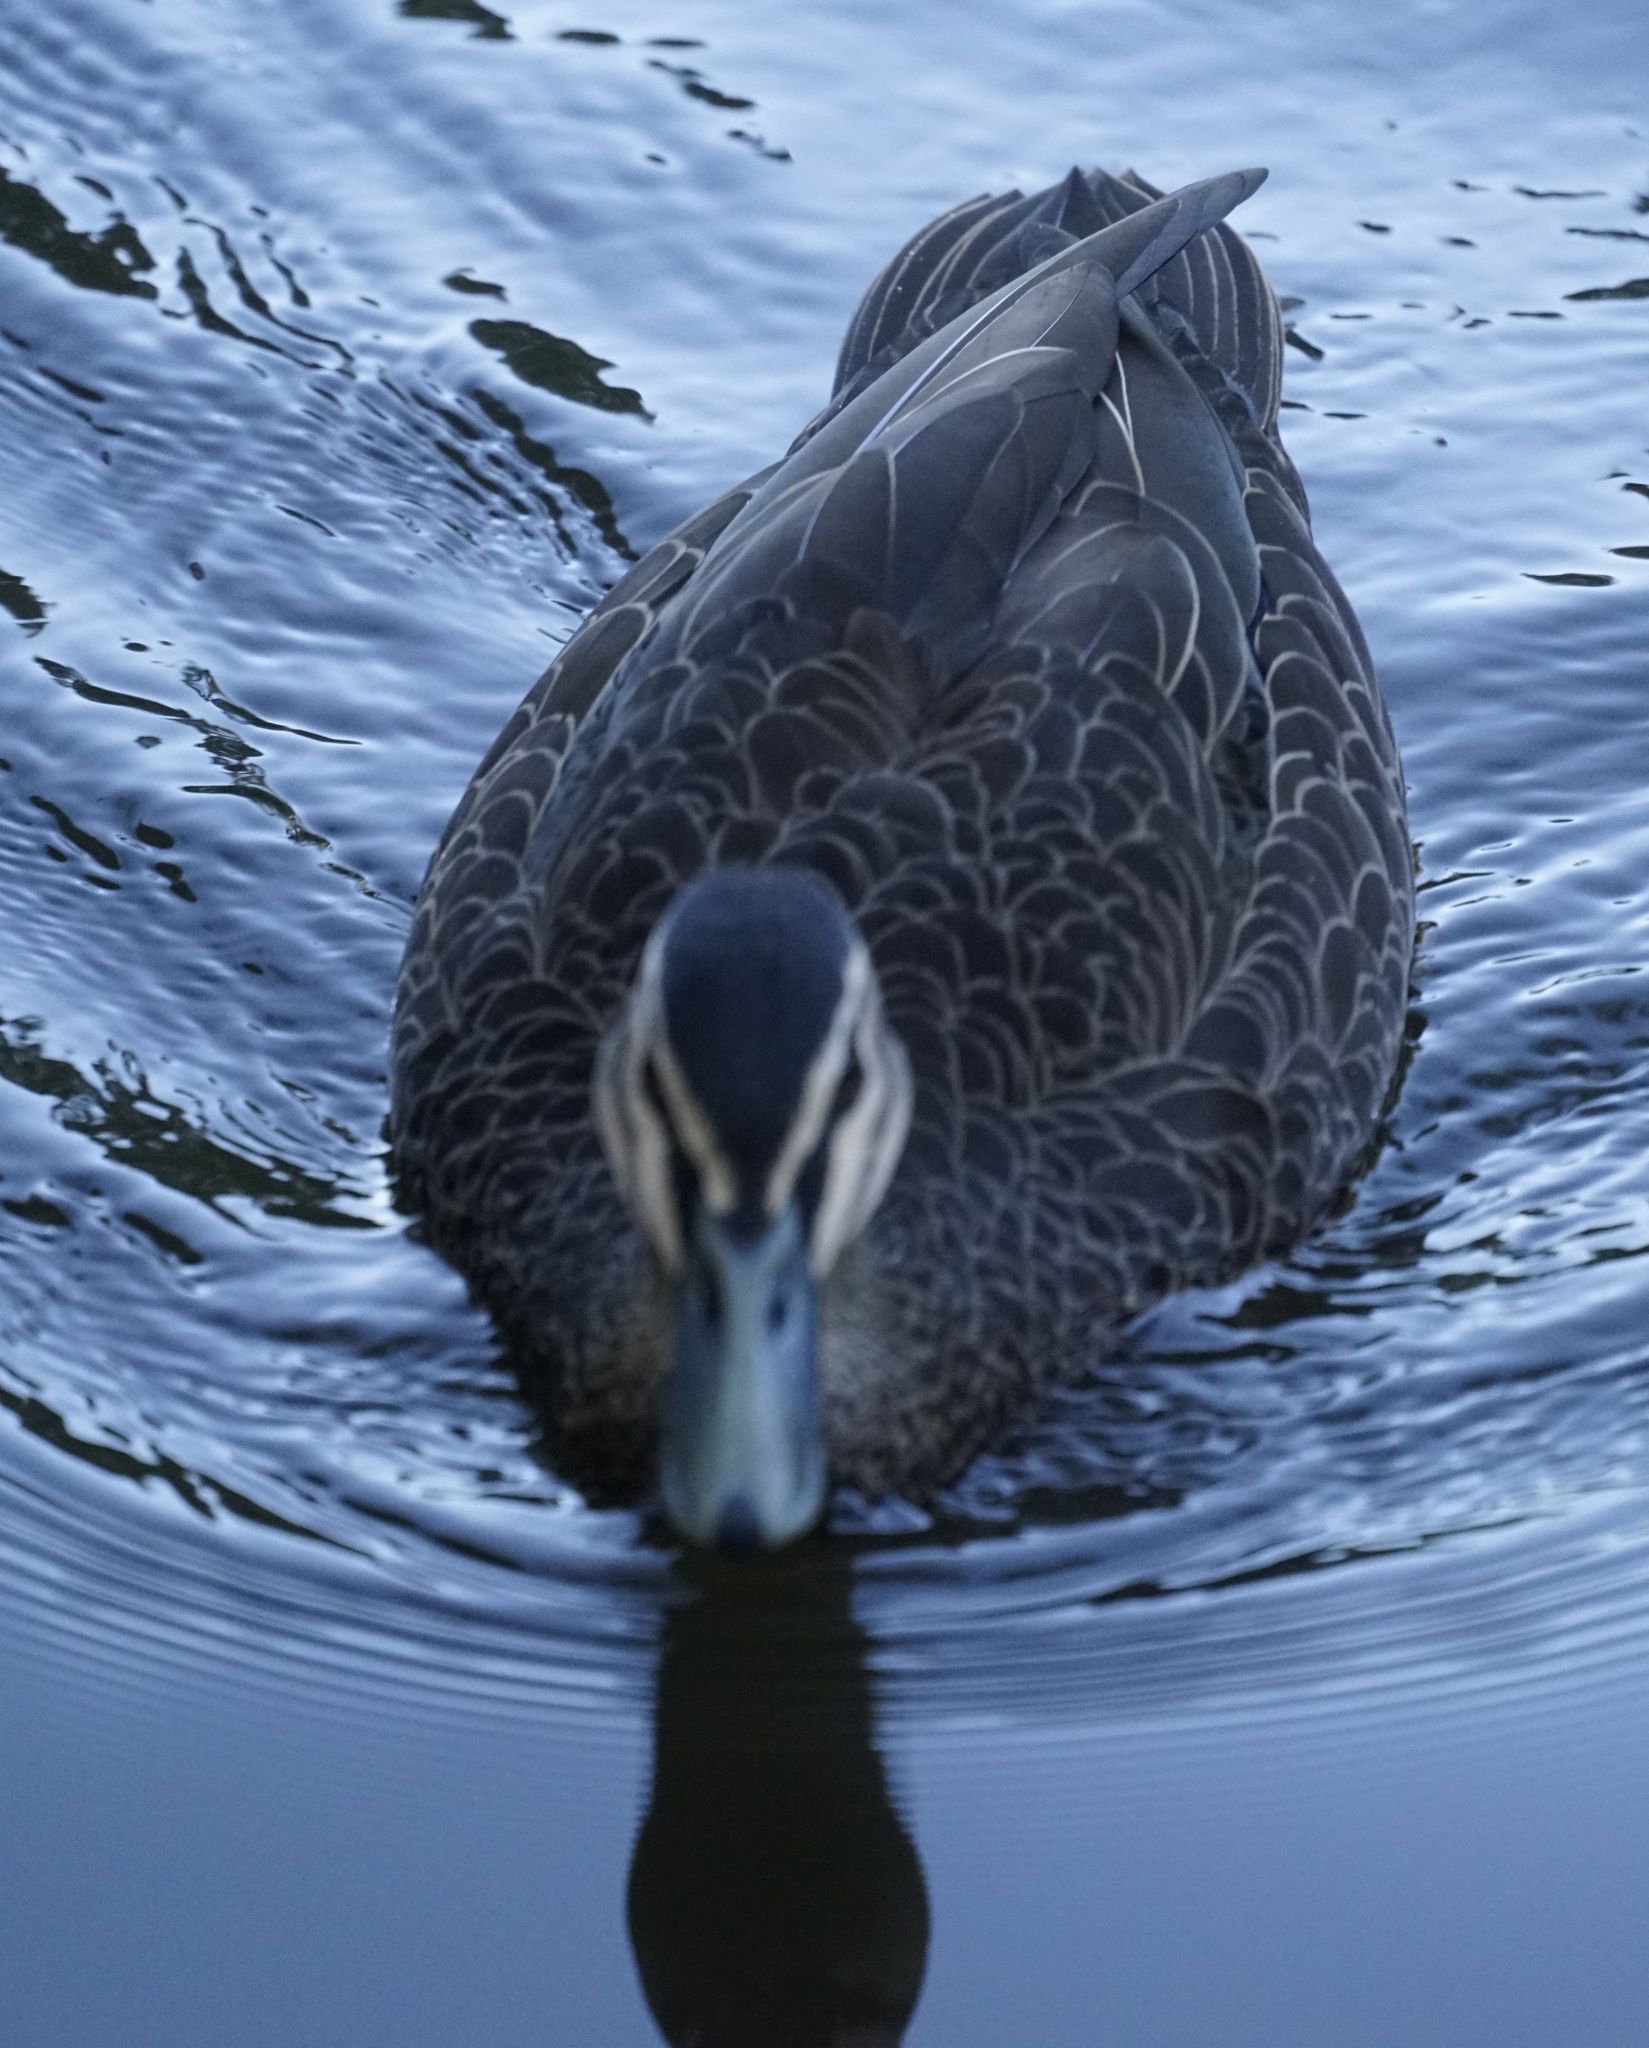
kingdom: Animalia
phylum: Chordata
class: Aves
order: Anseriformes
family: Anatidae
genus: Anas
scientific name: Anas superciliosa
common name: Pacific black duck
